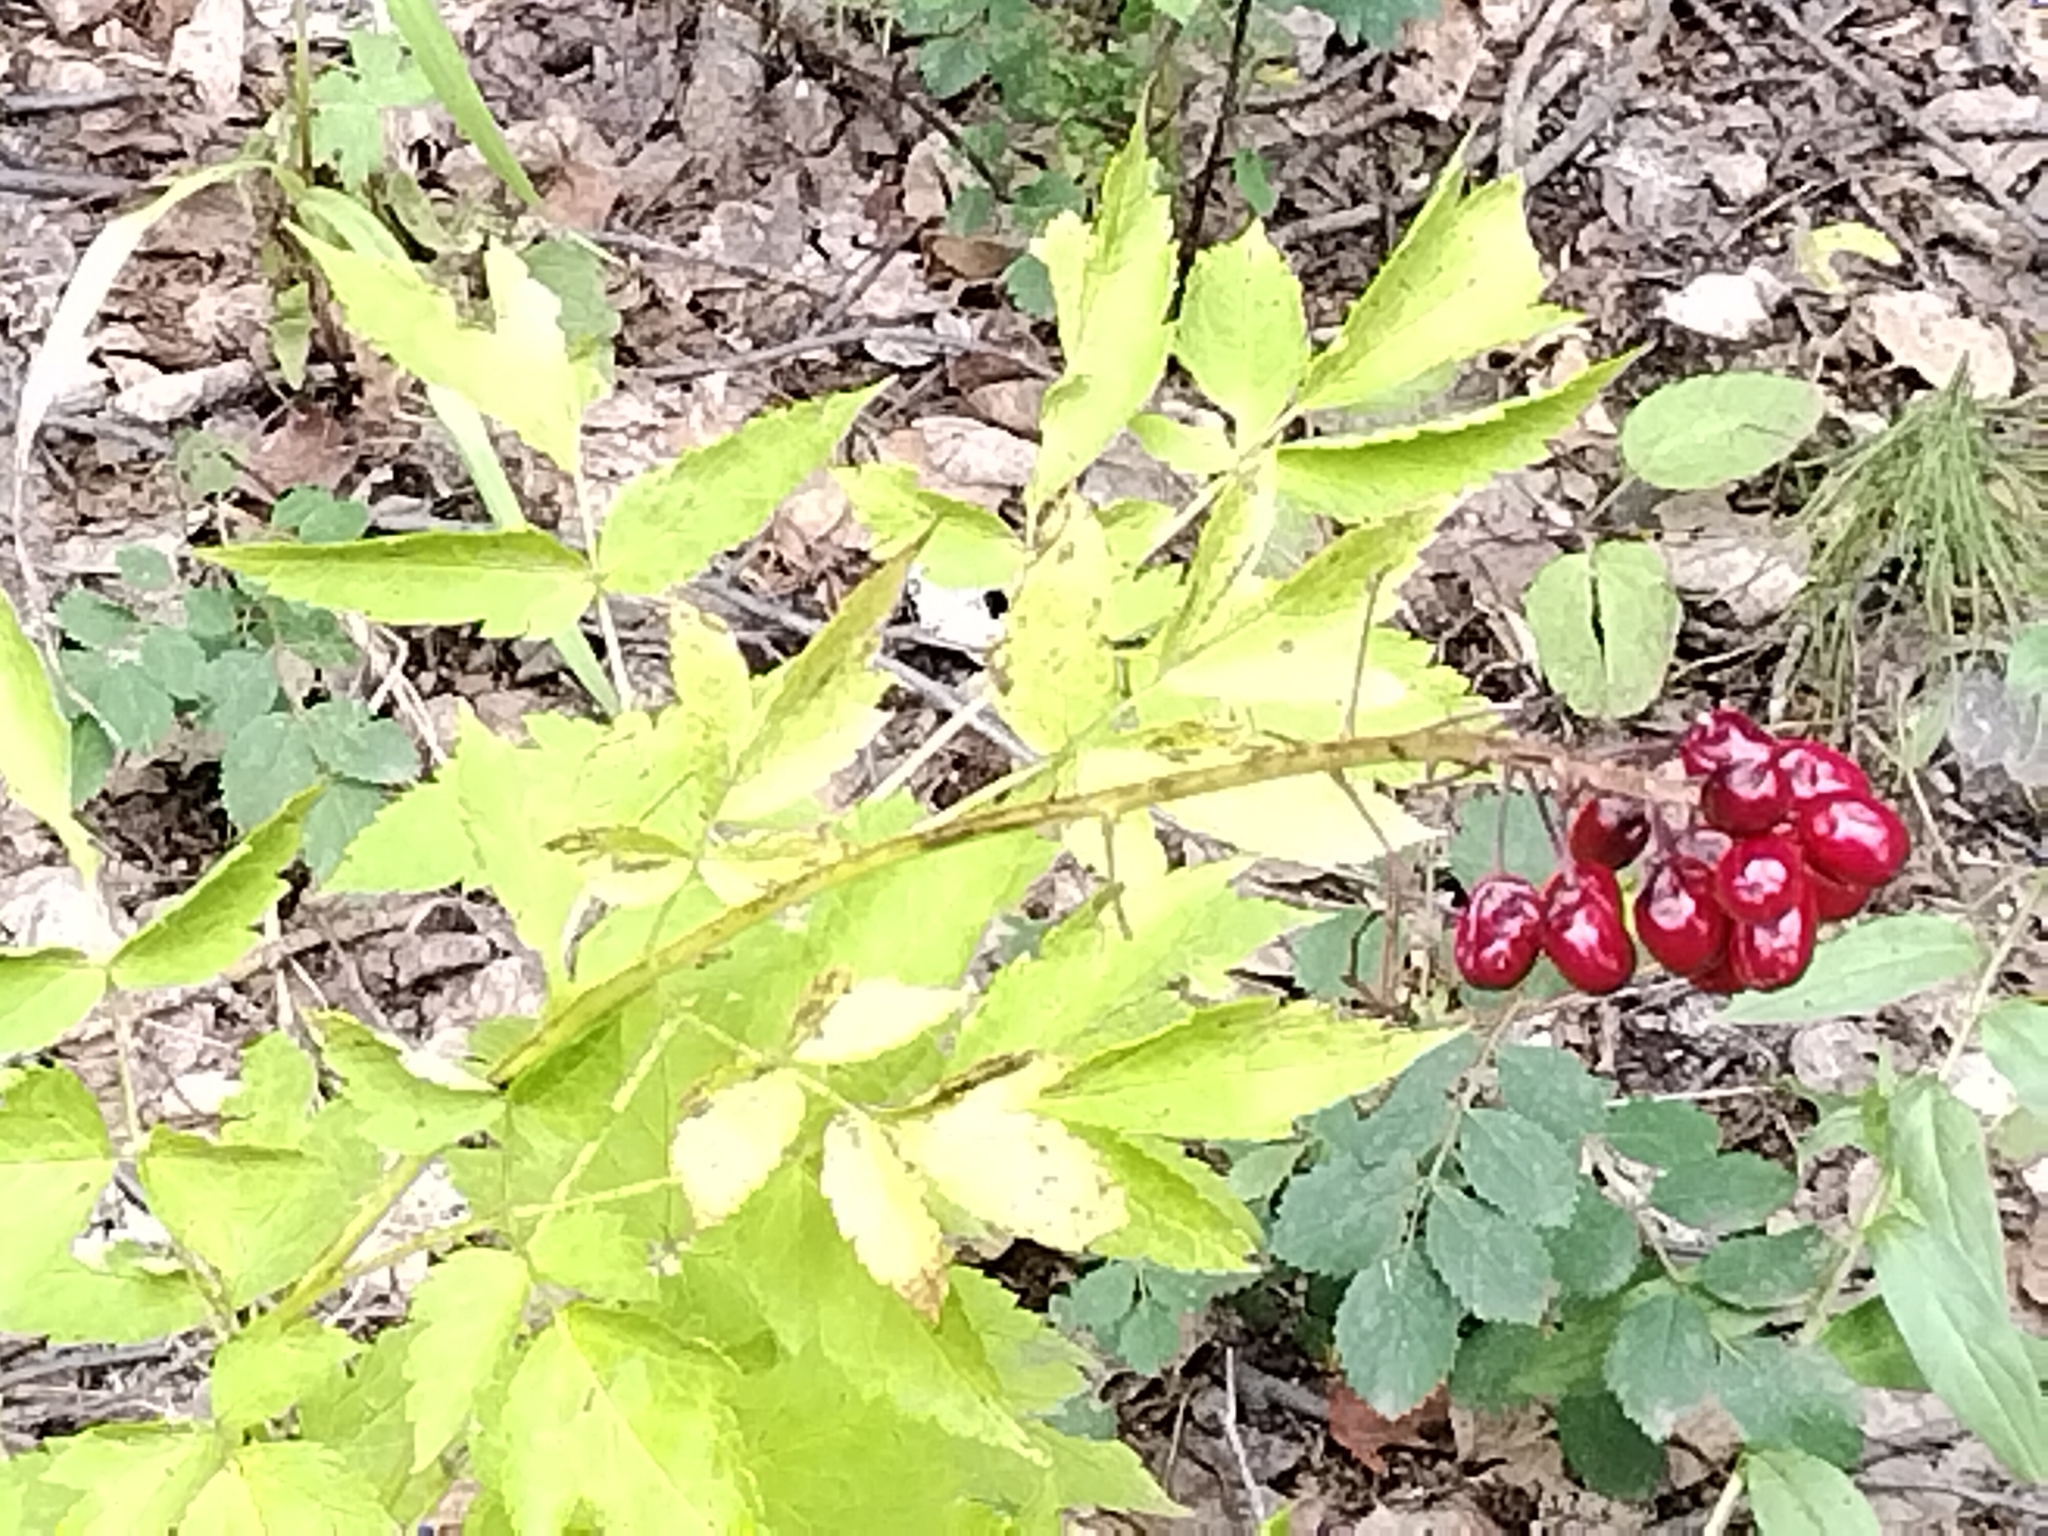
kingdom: Plantae
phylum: Tracheophyta
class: Magnoliopsida
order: Ranunculales
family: Ranunculaceae
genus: Actaea
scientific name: Actaea rubra
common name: Red baneberry
